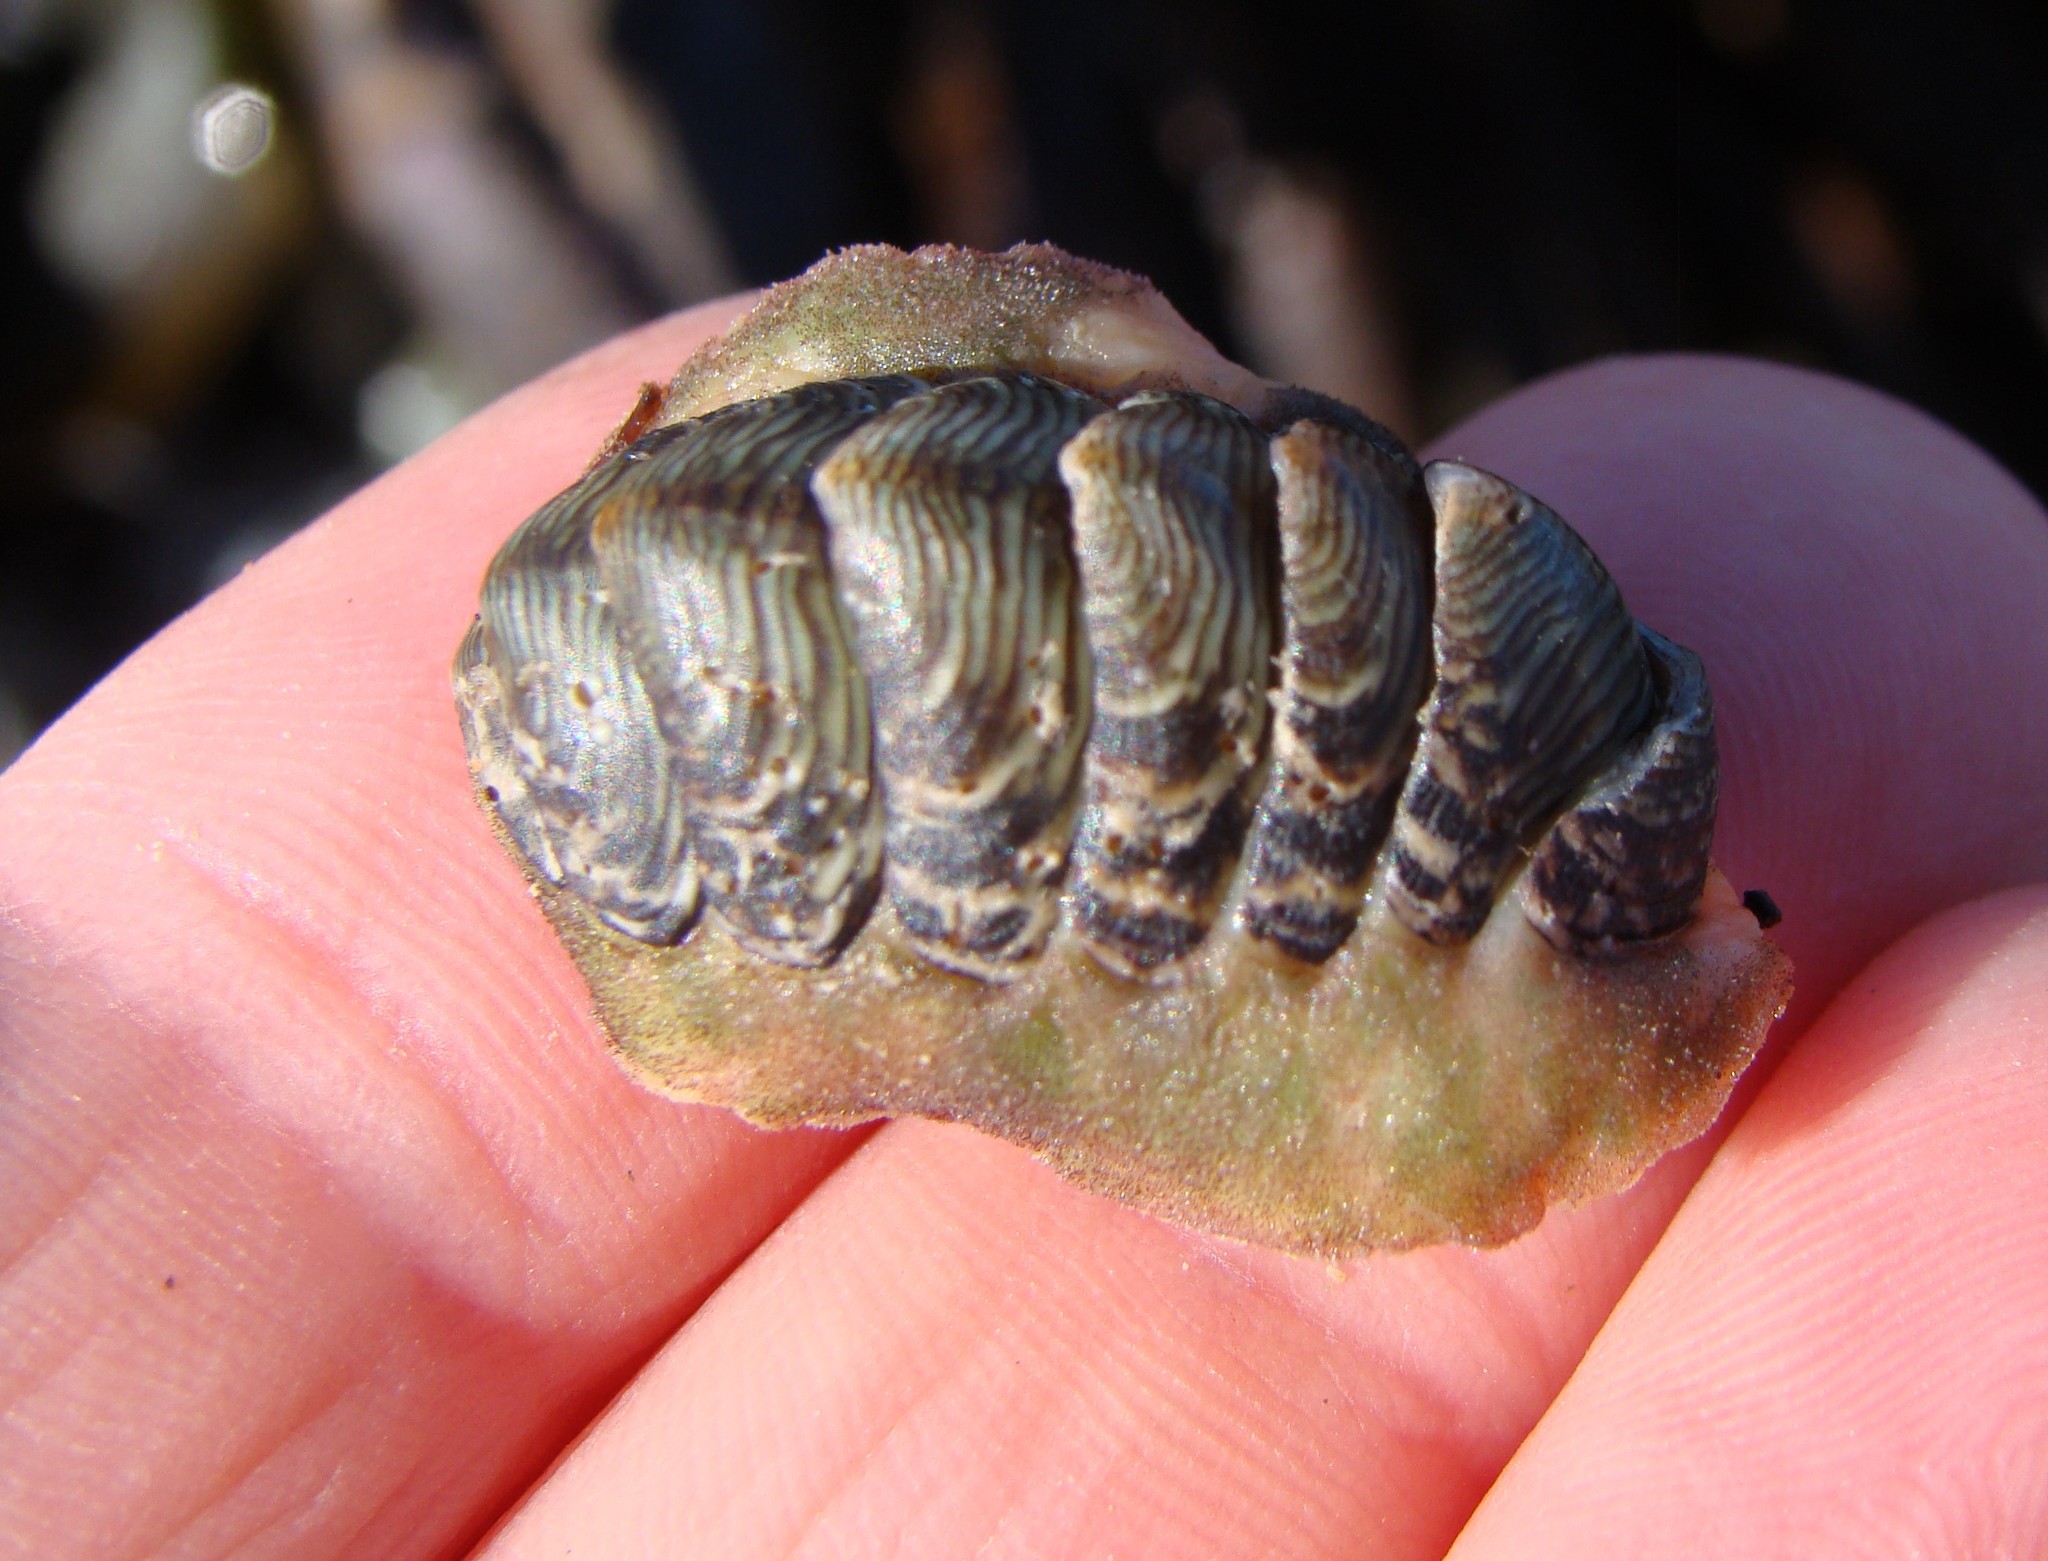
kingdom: Animalia
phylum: Mollusca
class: Polyplacophora
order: Chitonida
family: Chitonidae
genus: Onithochiton
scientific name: Onithochiton neglectus
